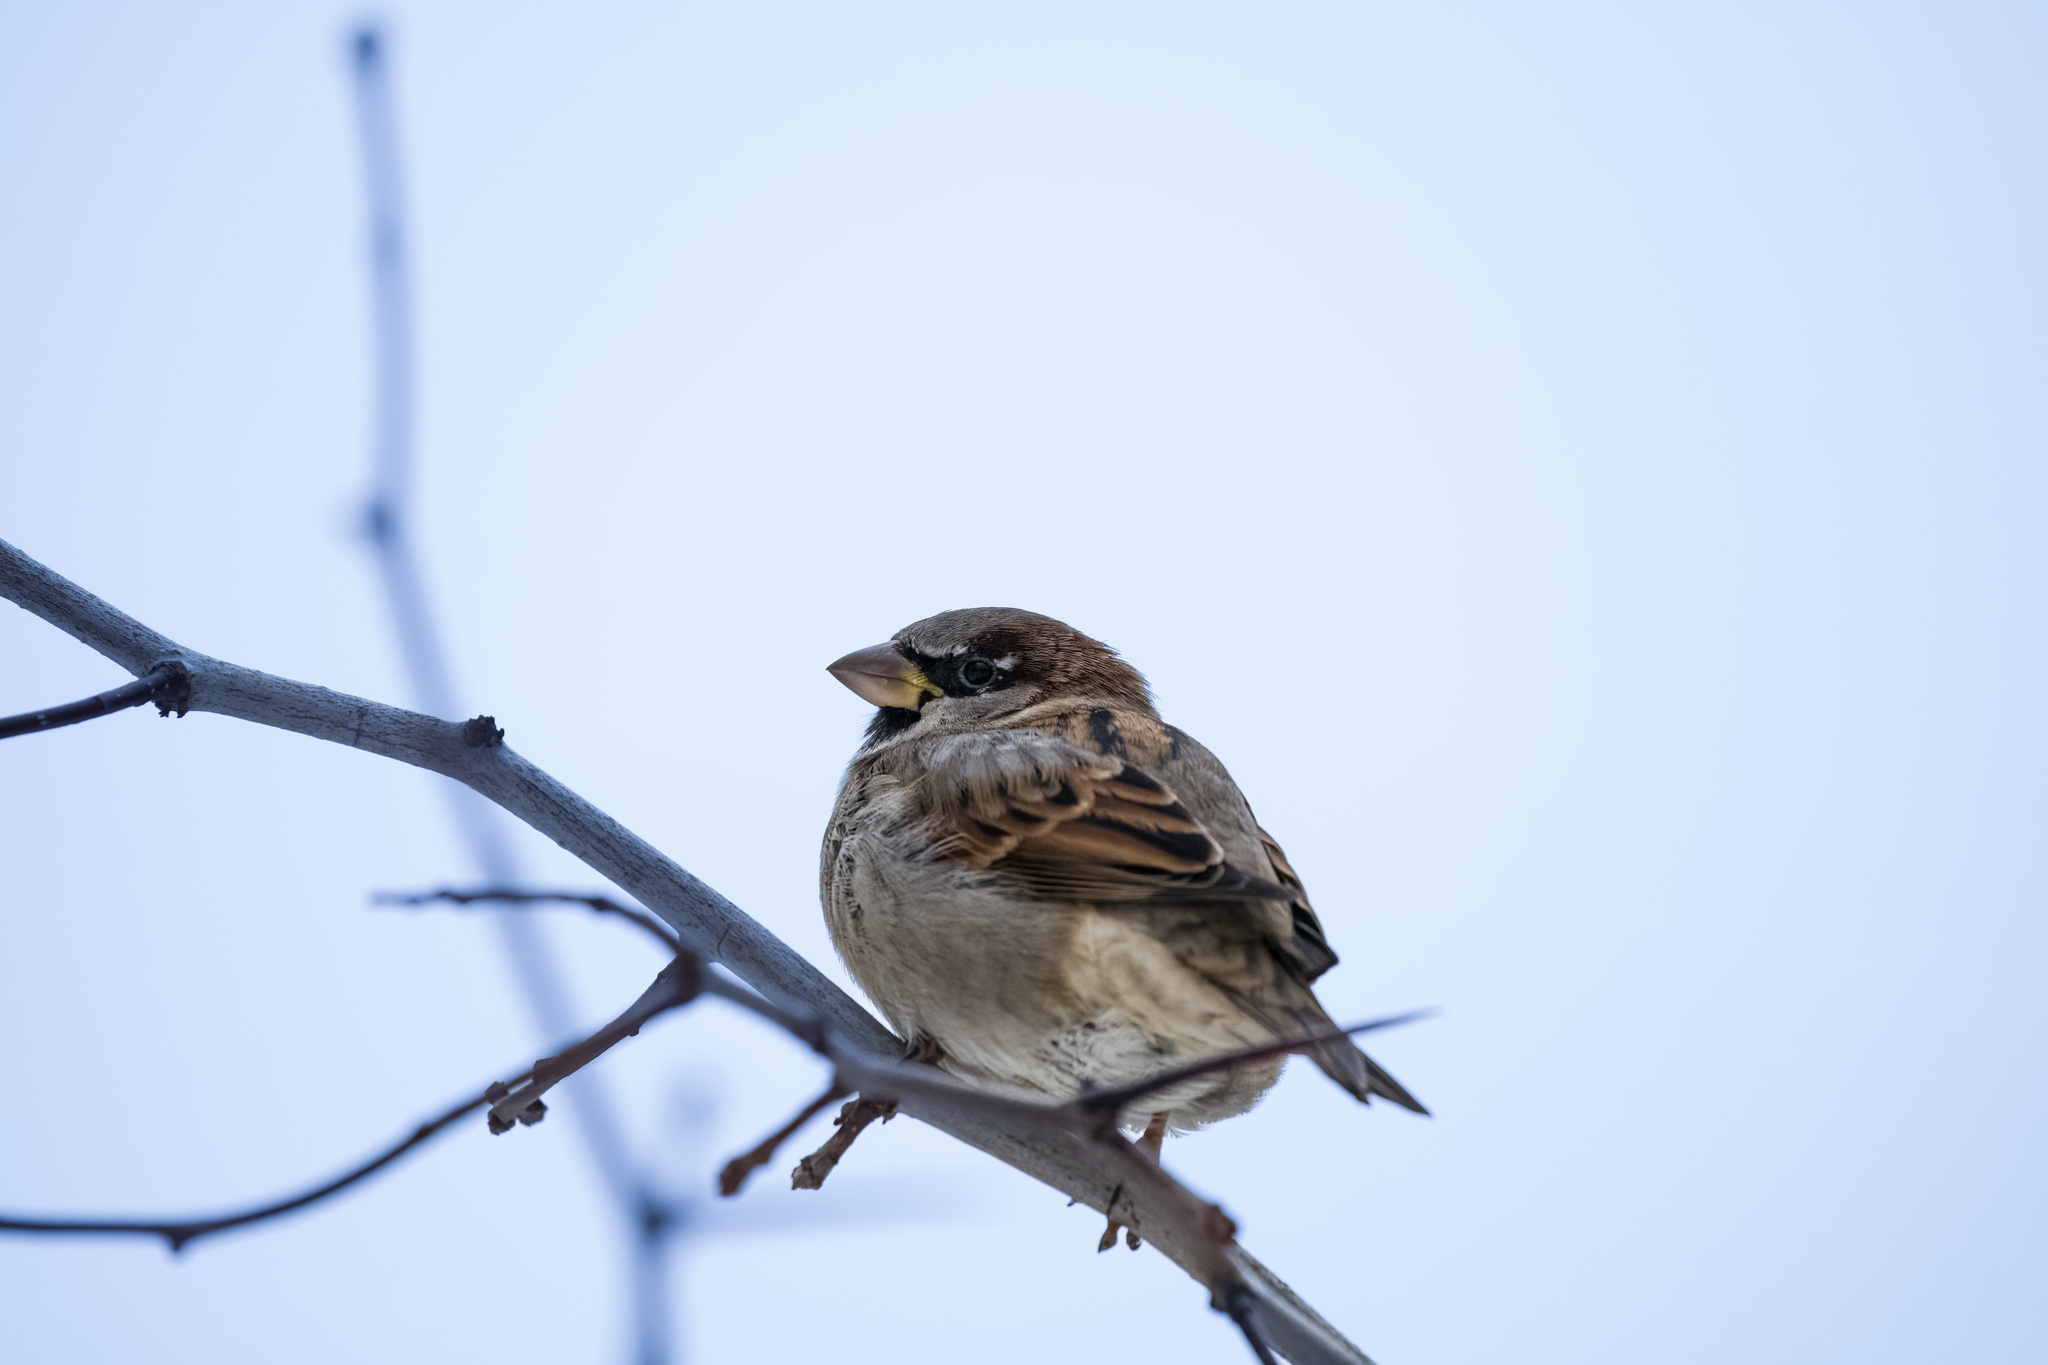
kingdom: Animalia
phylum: Chordata
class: Aves
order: Passeriformes
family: Passeridae
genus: Passer
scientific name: Passer domesticus
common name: House sparrow
